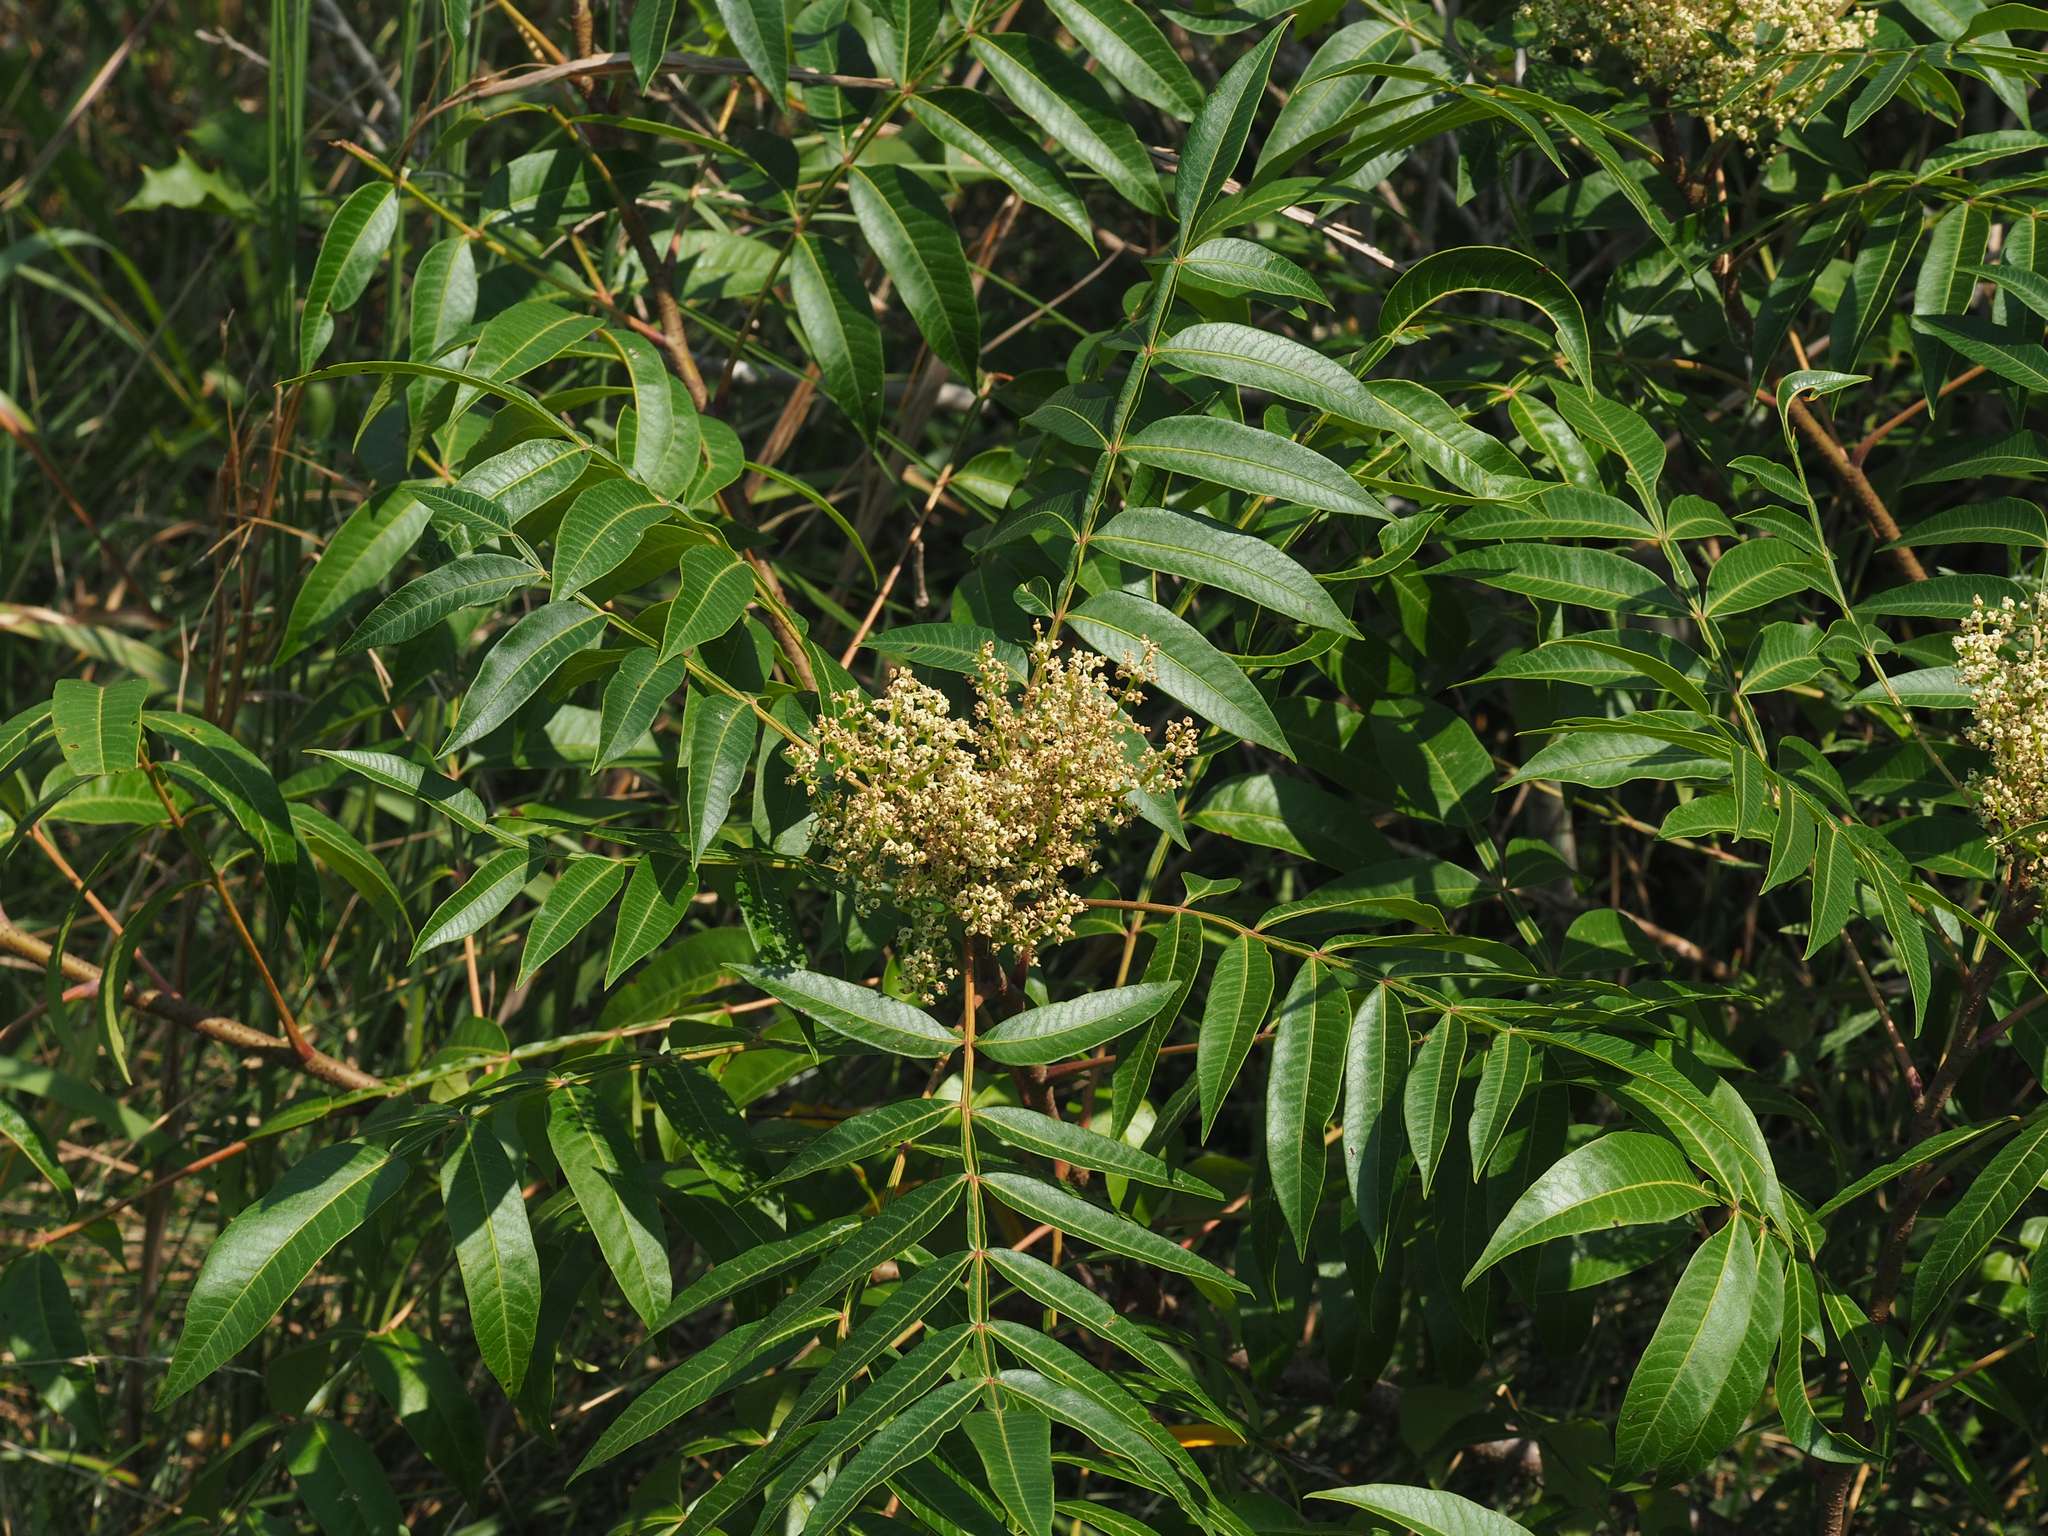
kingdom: Plantae
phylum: Tracheophyta
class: Magnoliopsida
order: Sapindales
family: Anacardiaceae
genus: Rhus
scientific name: Rhus copallina
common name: Shining sumac
